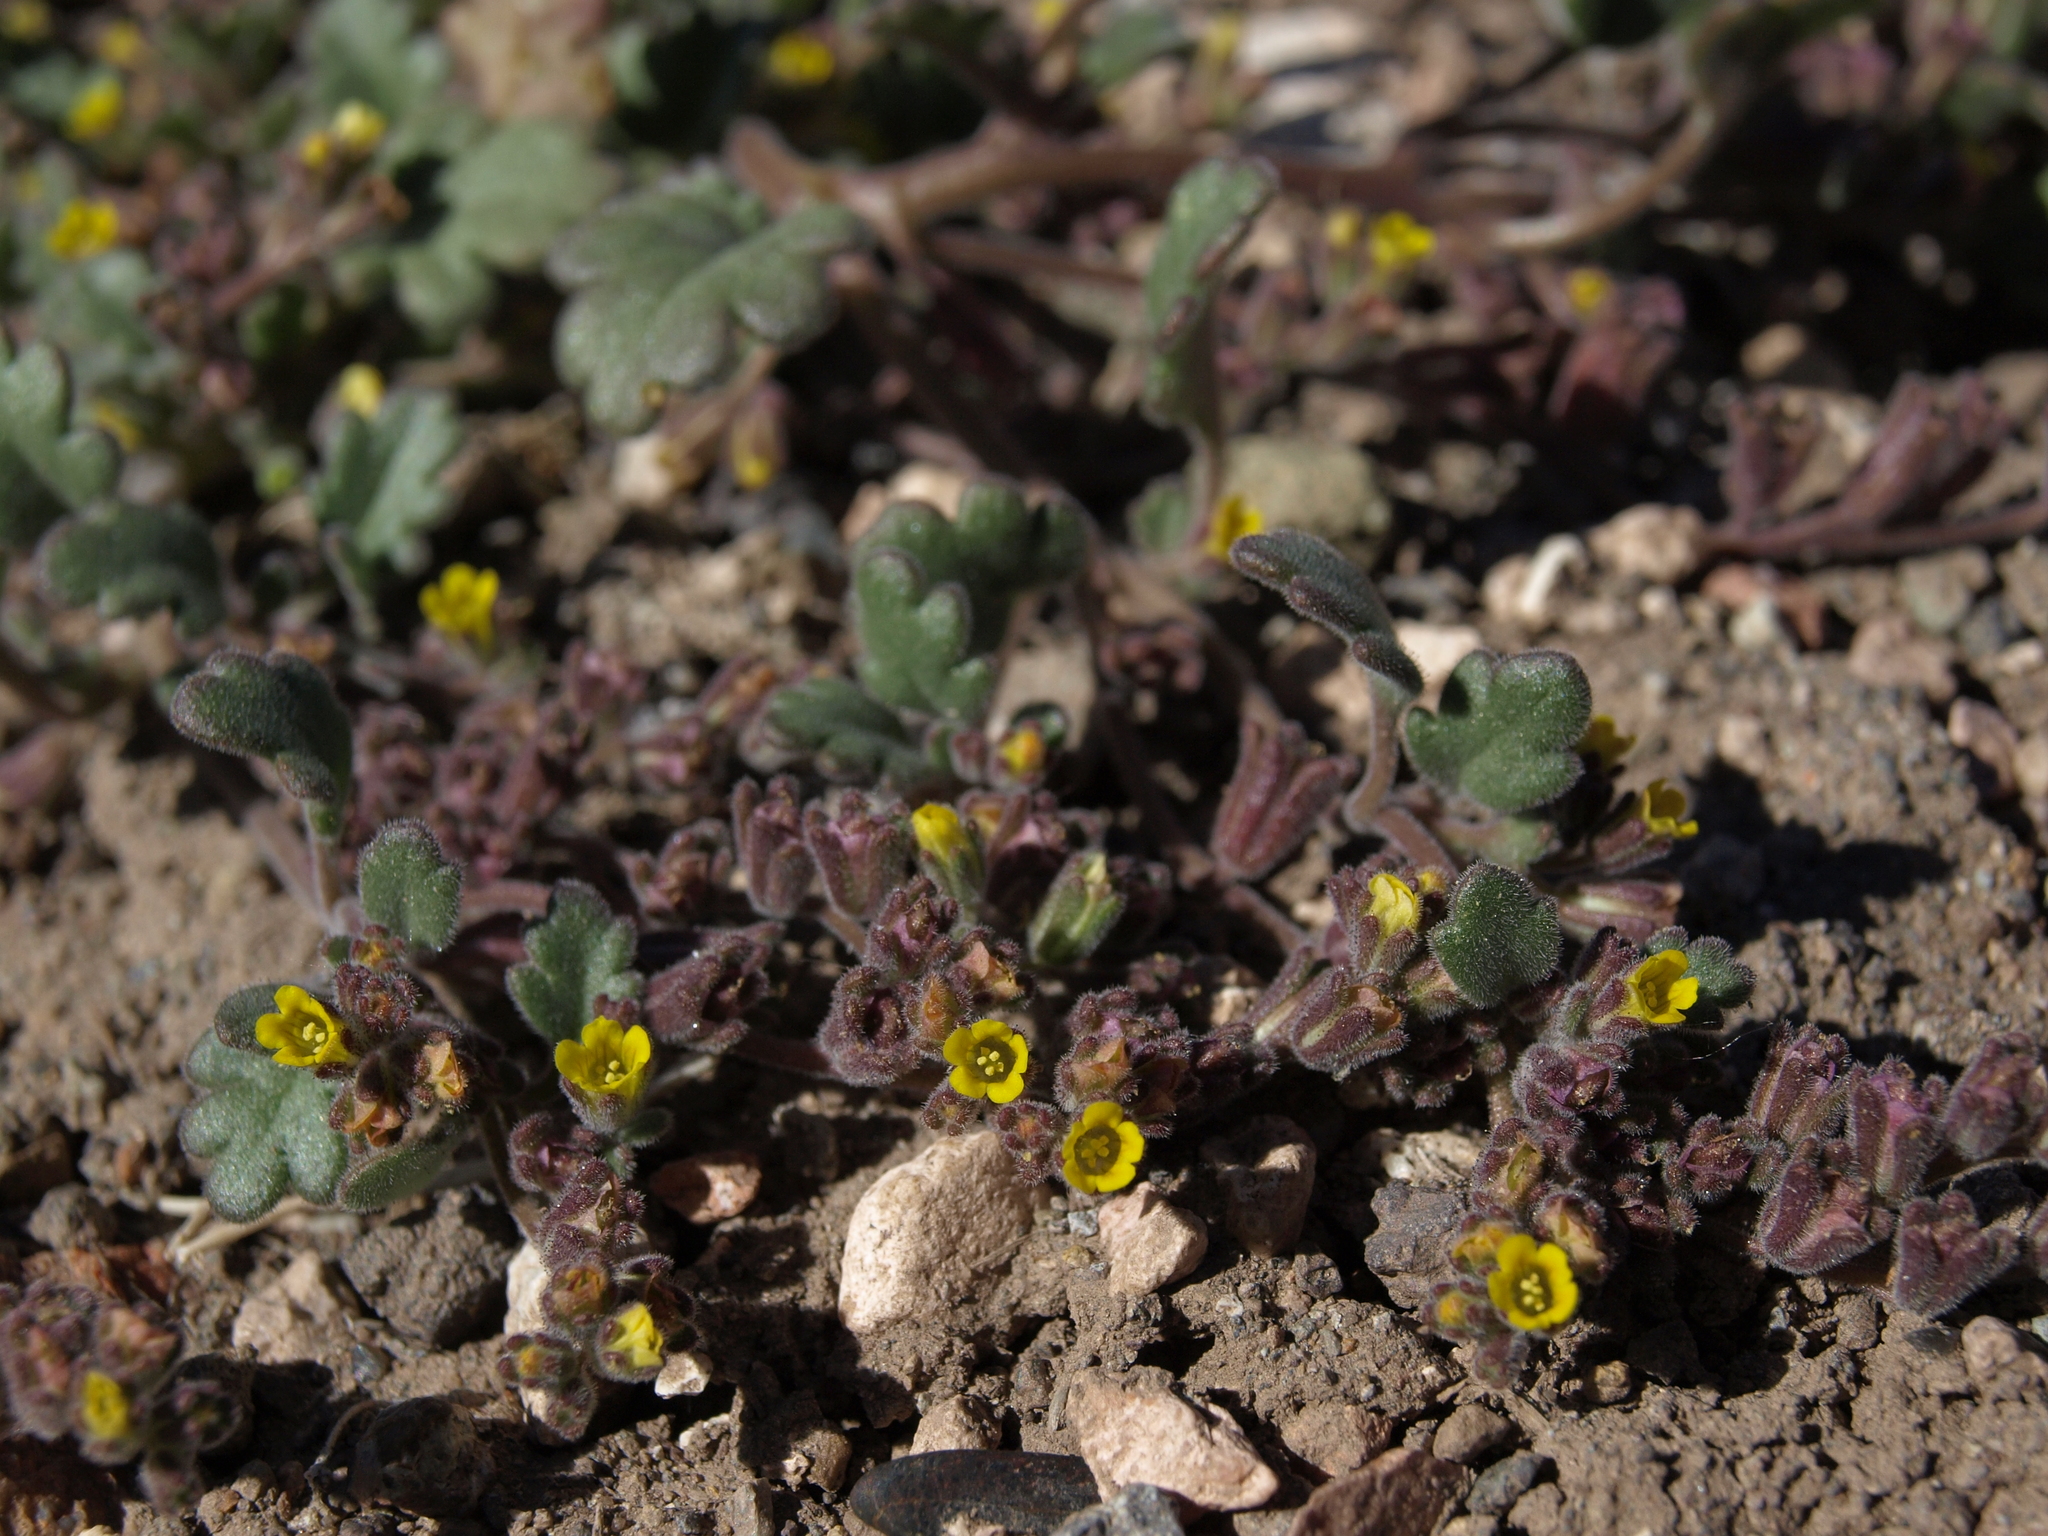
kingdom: Plantae
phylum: Tracheophyta
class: Magnoliopsida
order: Boraginales
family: Hydrophyllaceae
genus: Phacelia
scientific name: Phacelia monoensis
